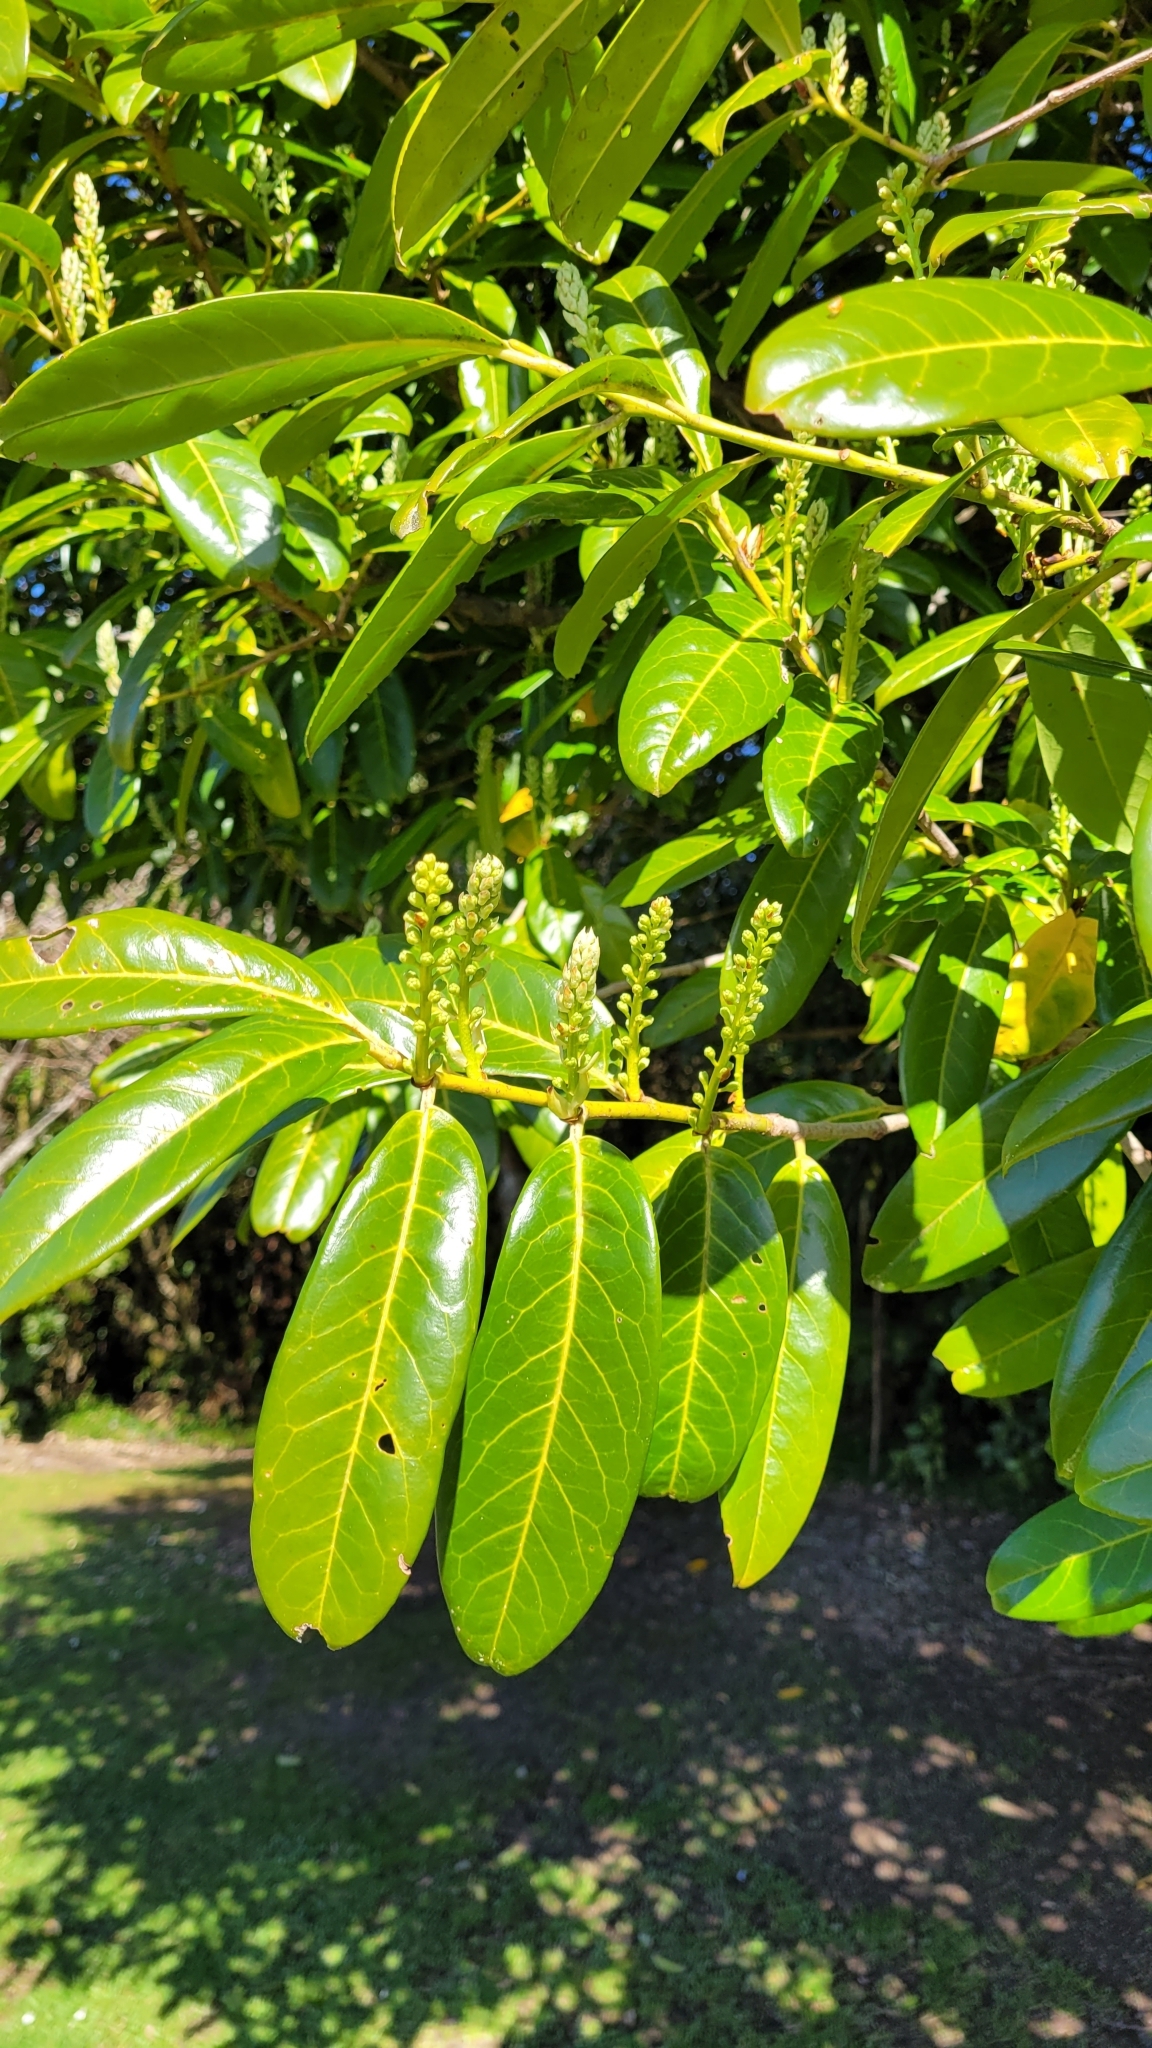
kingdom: Plantae
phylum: Tracheophyta
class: Magnoliopsida
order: Rosales
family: Rosaceae
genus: Prunus
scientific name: Prunus laurocerasus
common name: Cherry laurel
